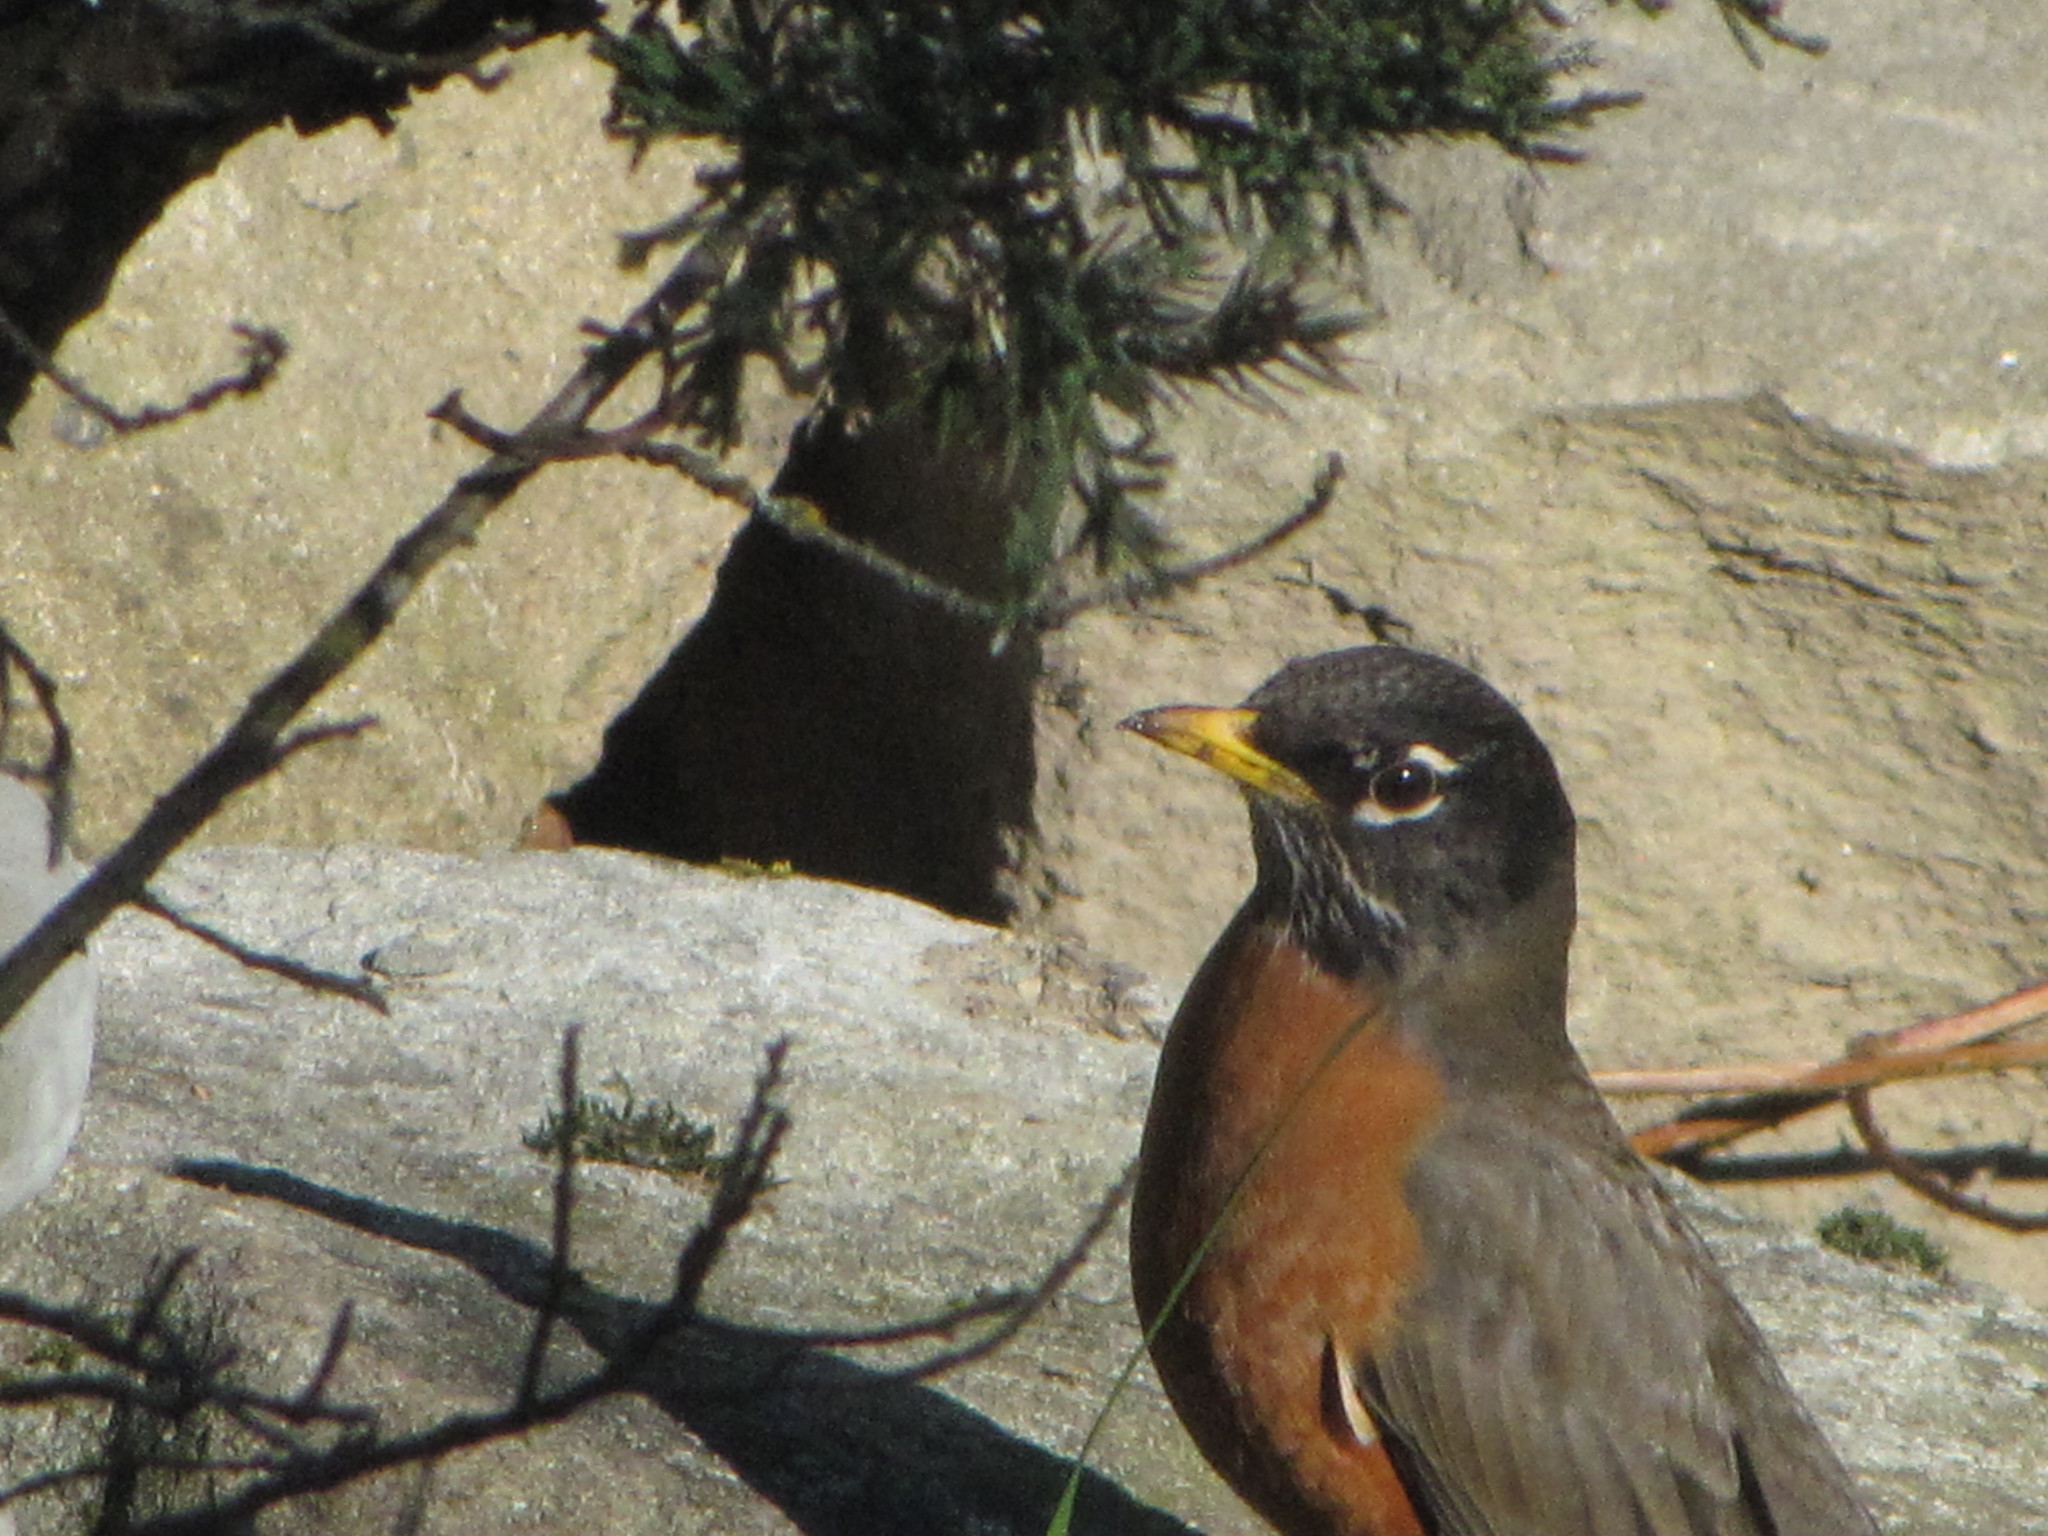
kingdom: Animalia
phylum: Chordata
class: Aves
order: Passeriformes
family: Turdidae
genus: Turdus
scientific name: Turdus migratorius
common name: American robin
